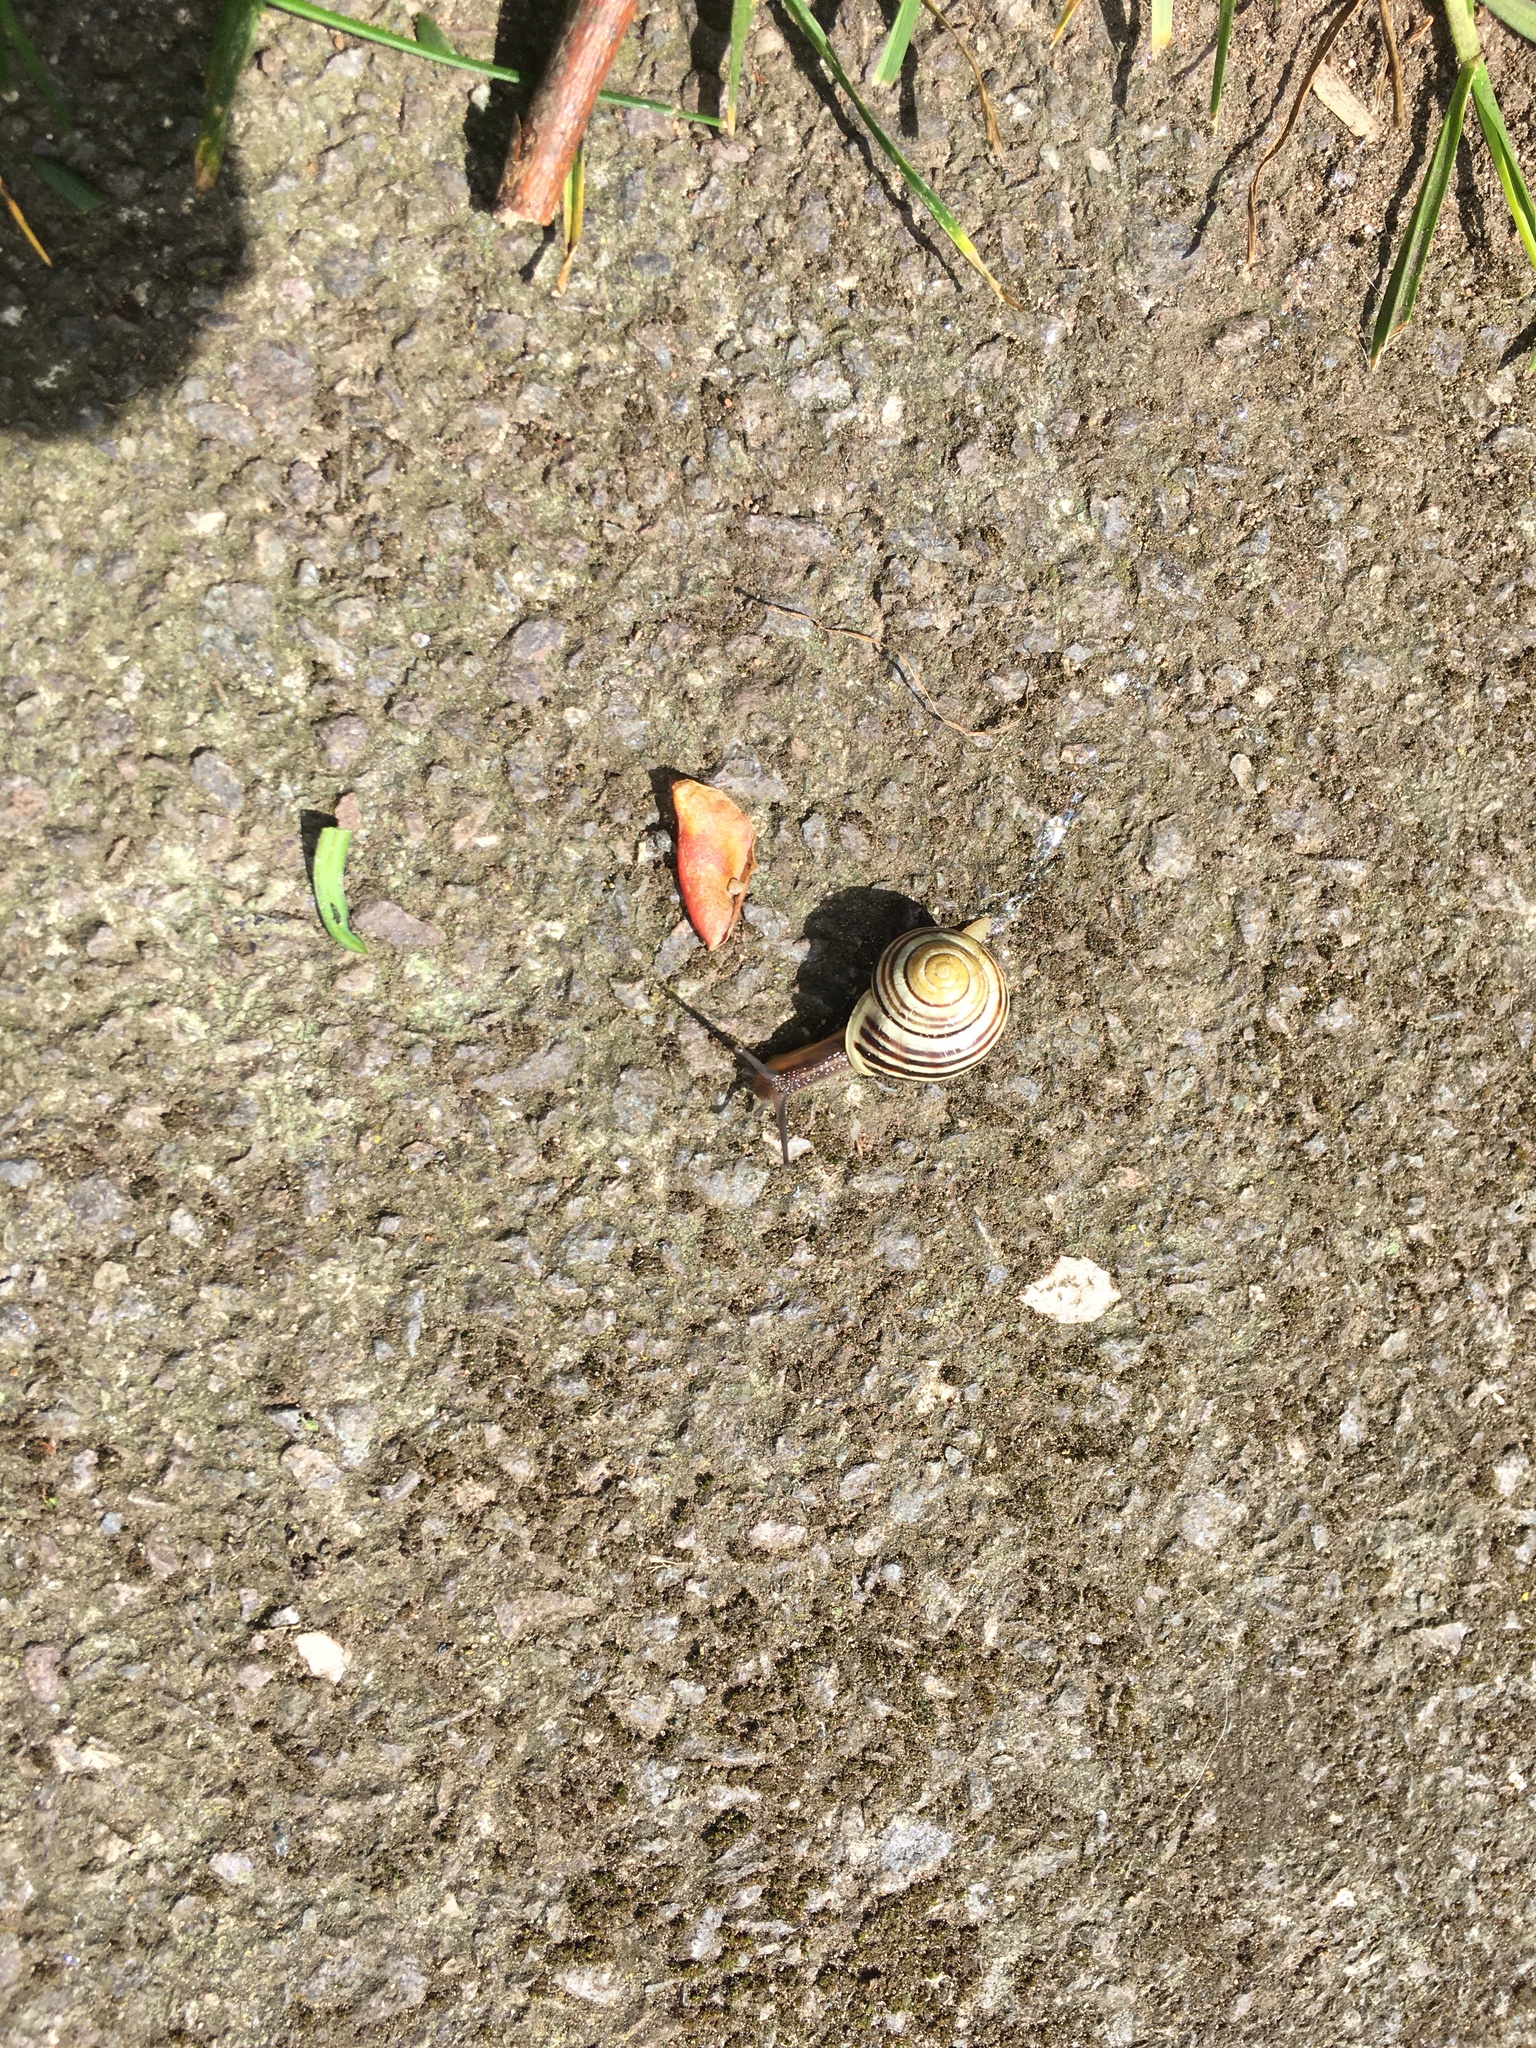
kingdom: Animalia
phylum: Mollusca
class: Gastropoda
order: Stylommatophora
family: Helicidae
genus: Cepaea
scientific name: Cepaea hortensis
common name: White-lip gardensnail
